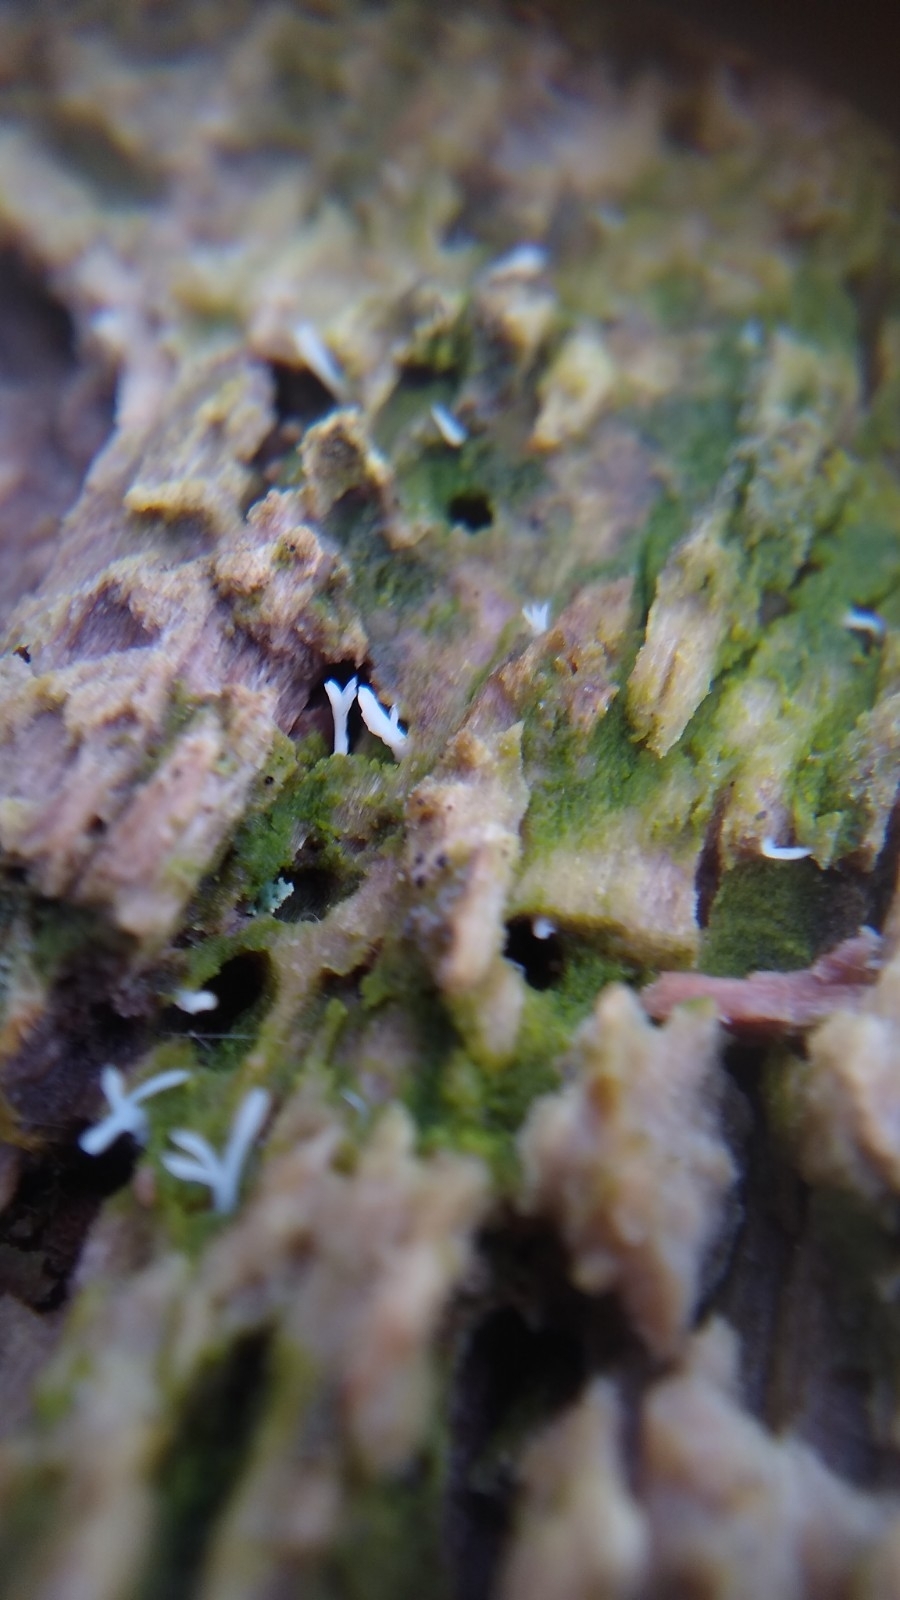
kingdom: Fungi
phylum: Basidiomycota
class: Agaricomycetes
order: Cantharellales
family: Hydnaceae
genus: Multiclavula
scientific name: Multiclavula mucida
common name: White green-algae coral
